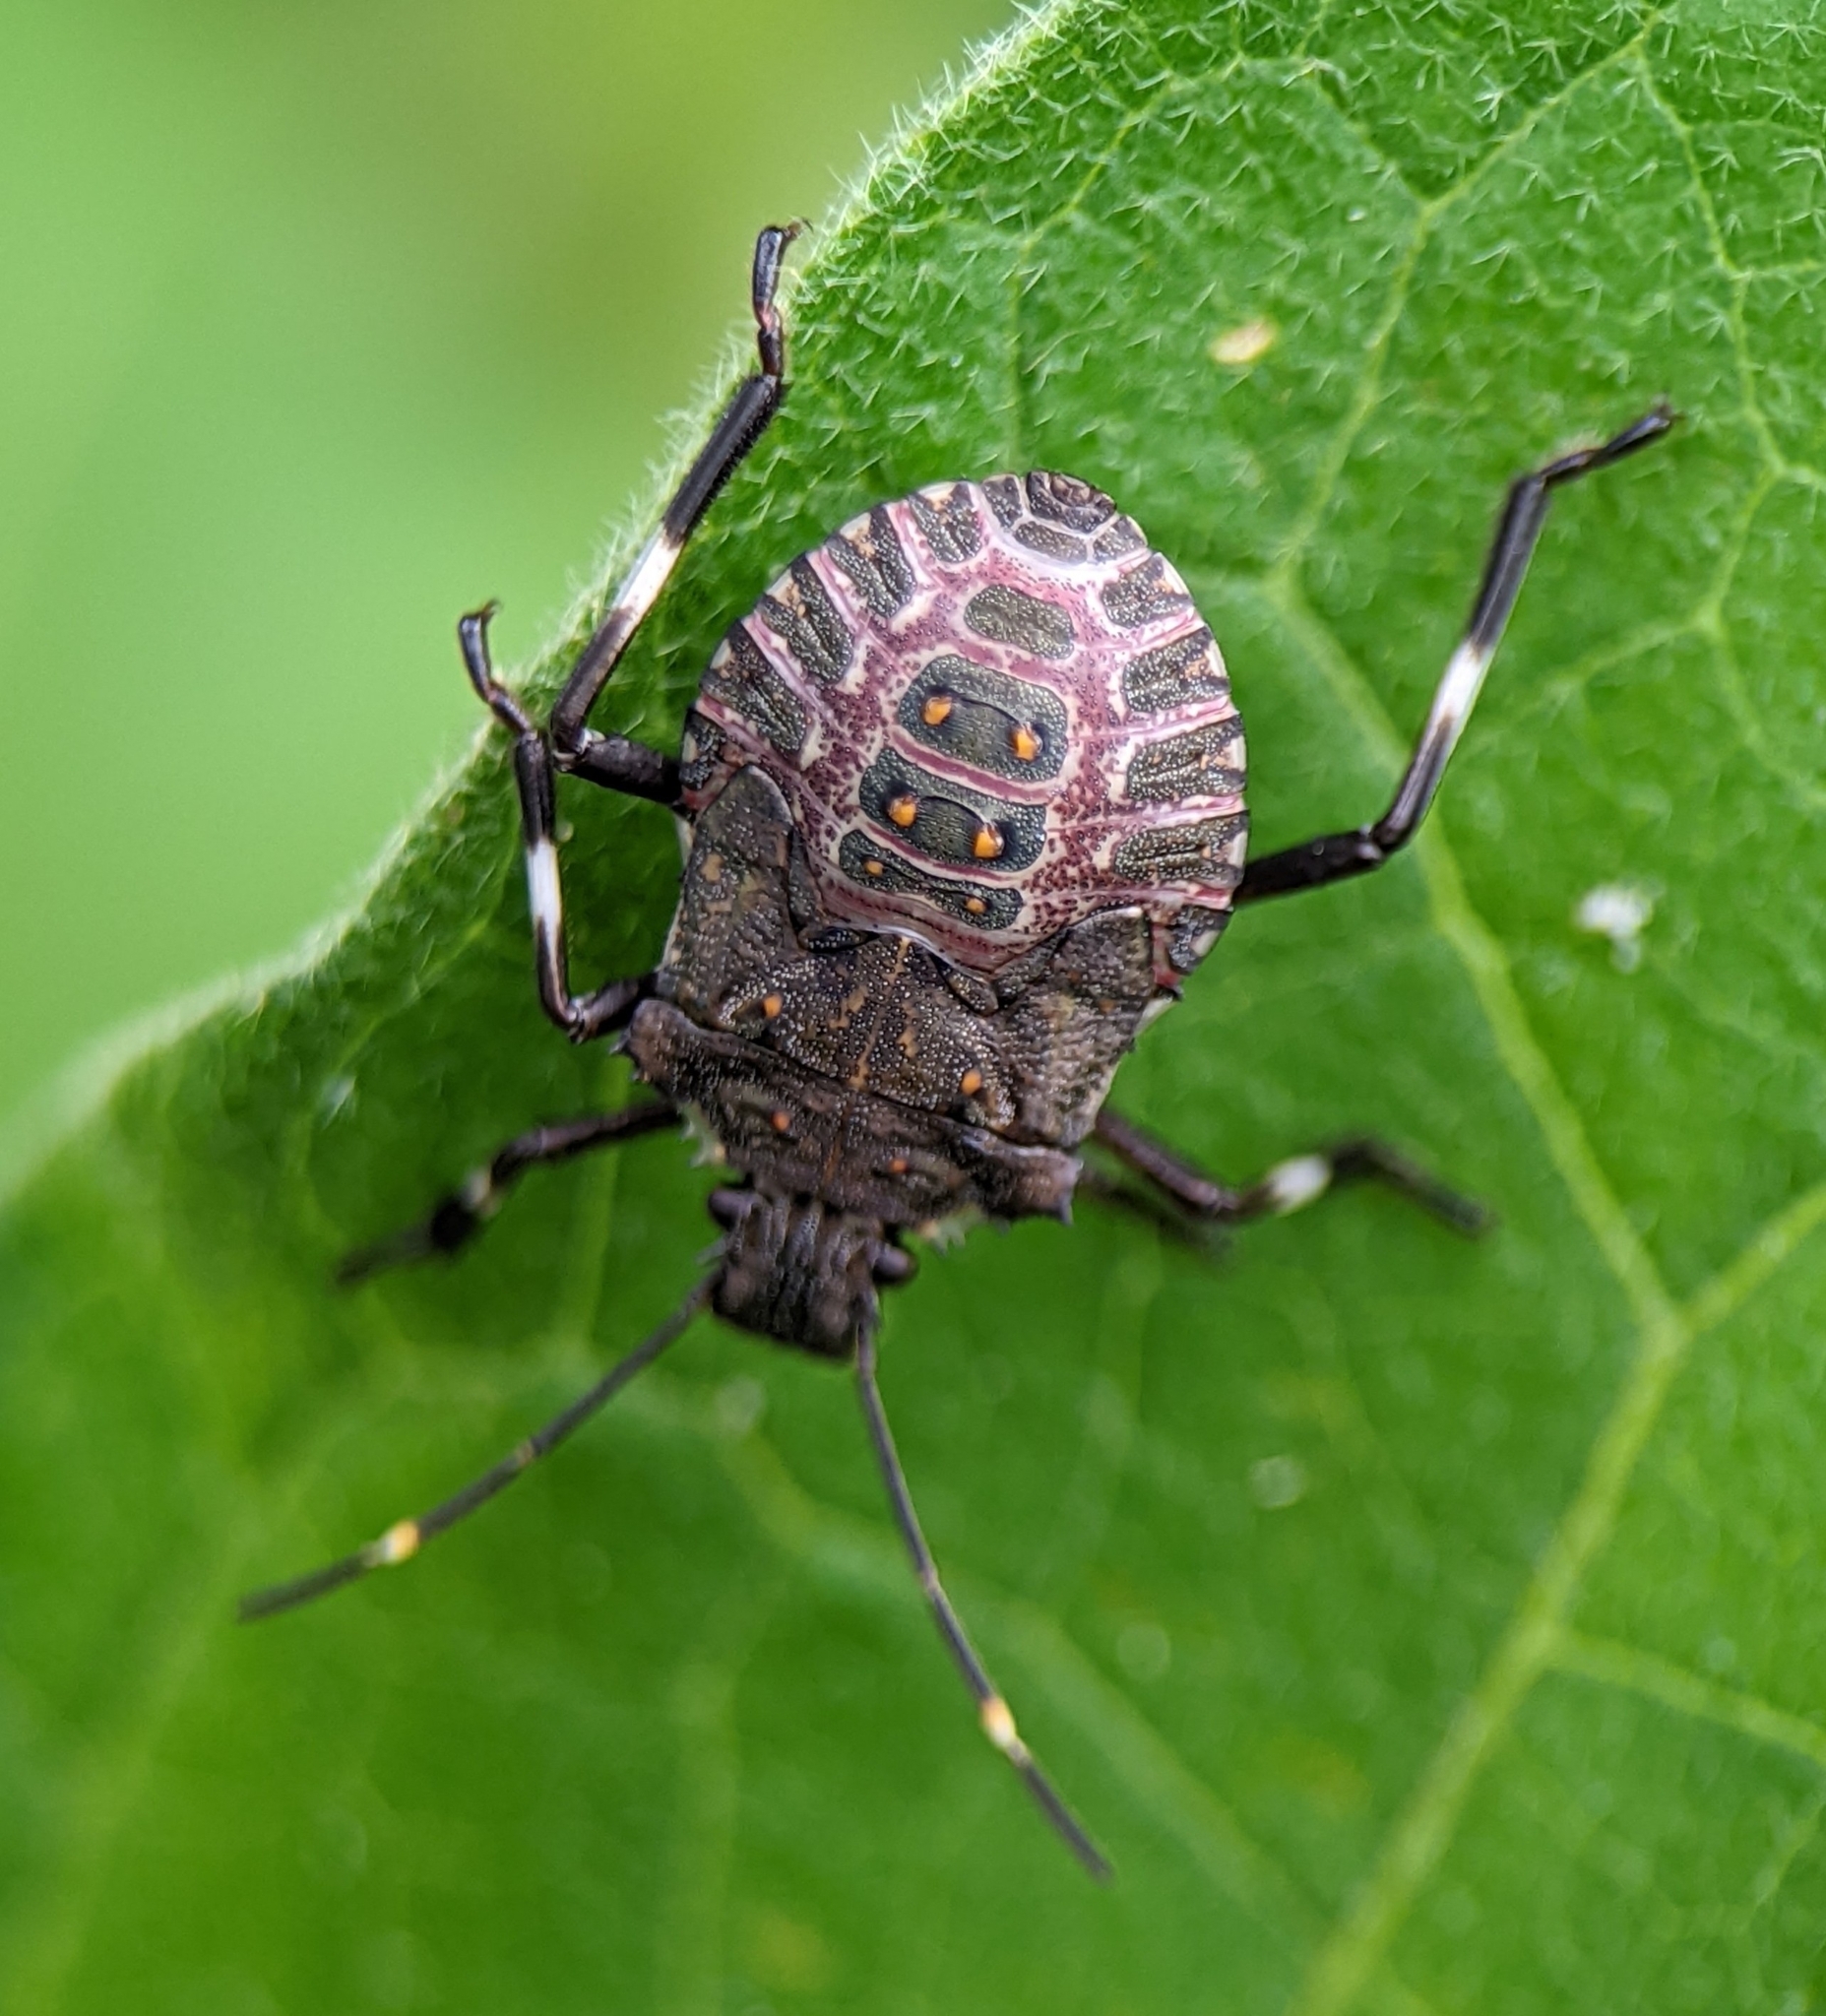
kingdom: Animalia
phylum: Arthropoda
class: Insecta
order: Hemiptera
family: Pentatomidae
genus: Halyomorpha
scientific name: Halyomorpha halys
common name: Brown marmorated stink bug
